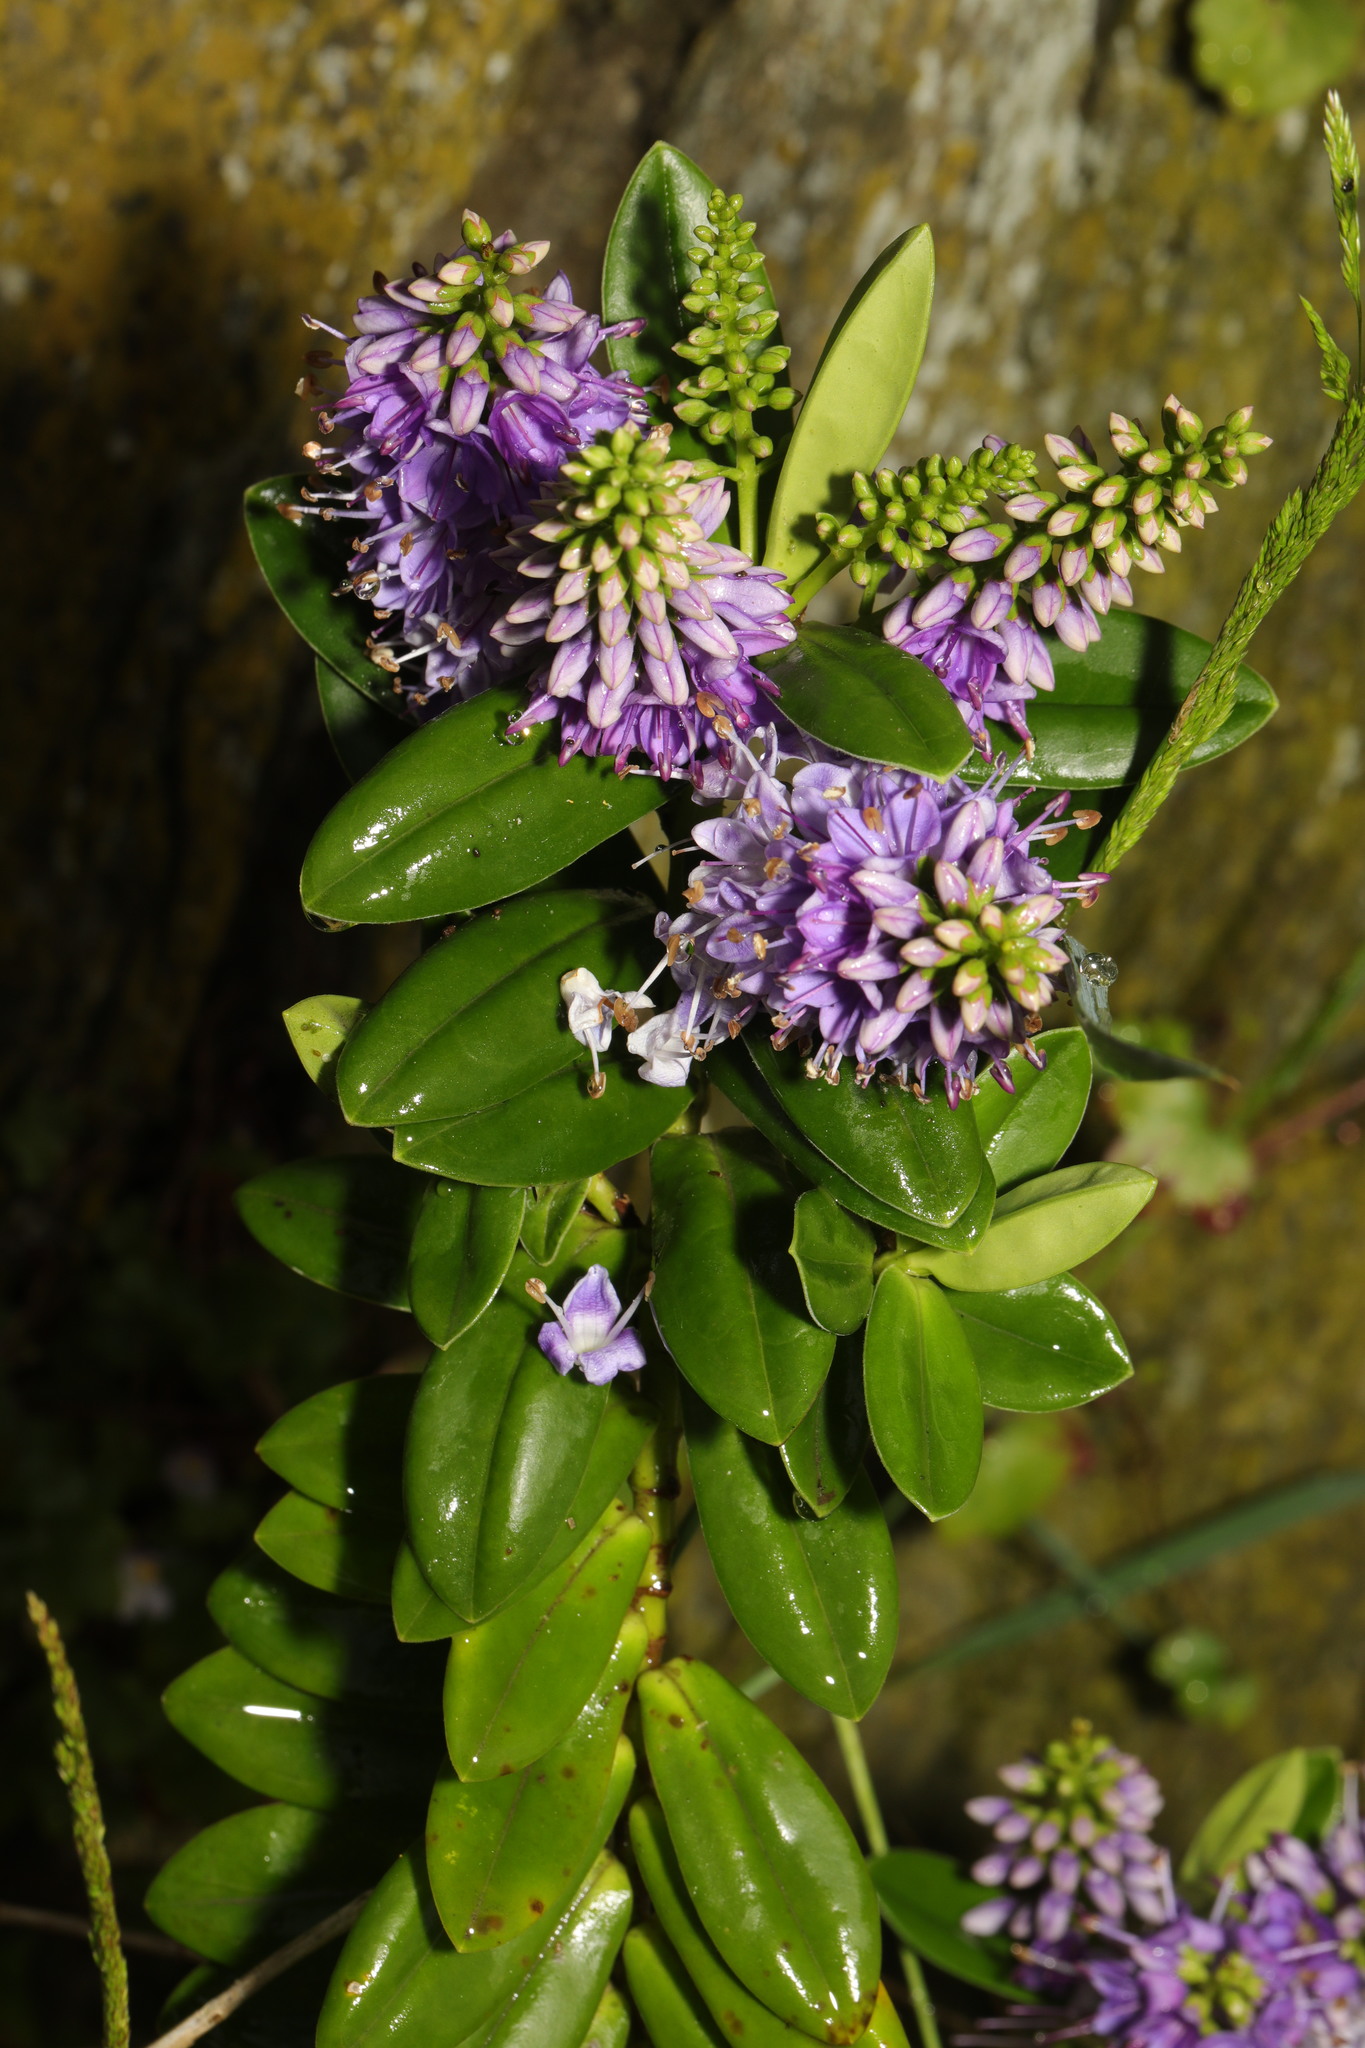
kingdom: Plantae
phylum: Tracheophyta
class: Magnoliopsida
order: Lamiales
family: Plantaginaceae
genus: Veronica
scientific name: Veronica franciscana
